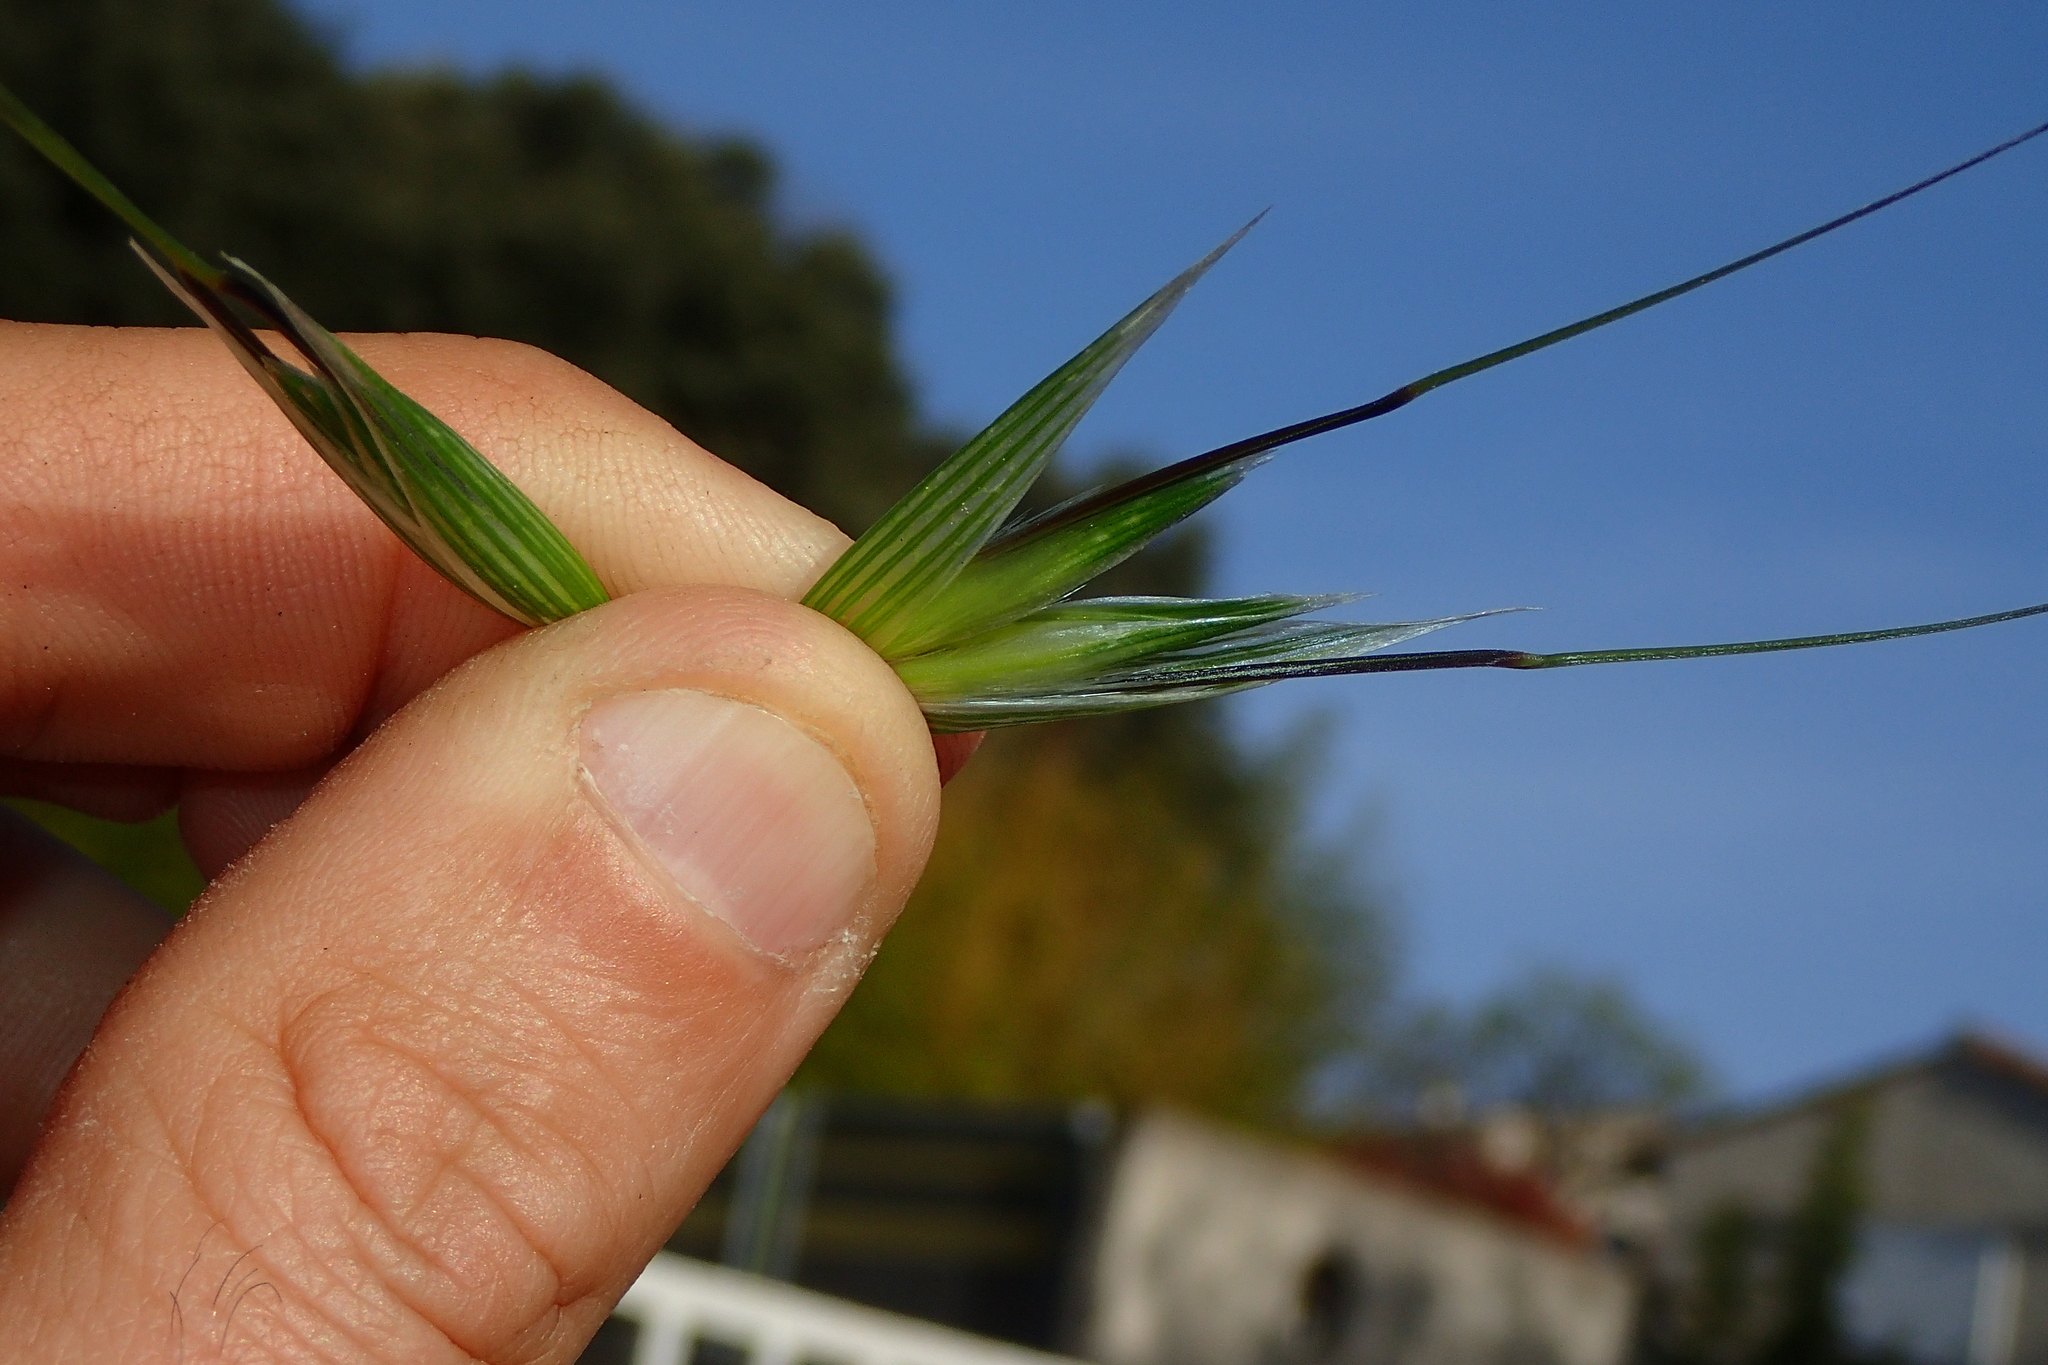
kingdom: Plantae
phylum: Tracheophyta
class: Liliopsida
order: Poales
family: Poaceae
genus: Avena
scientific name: Avena sativa
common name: Oat
